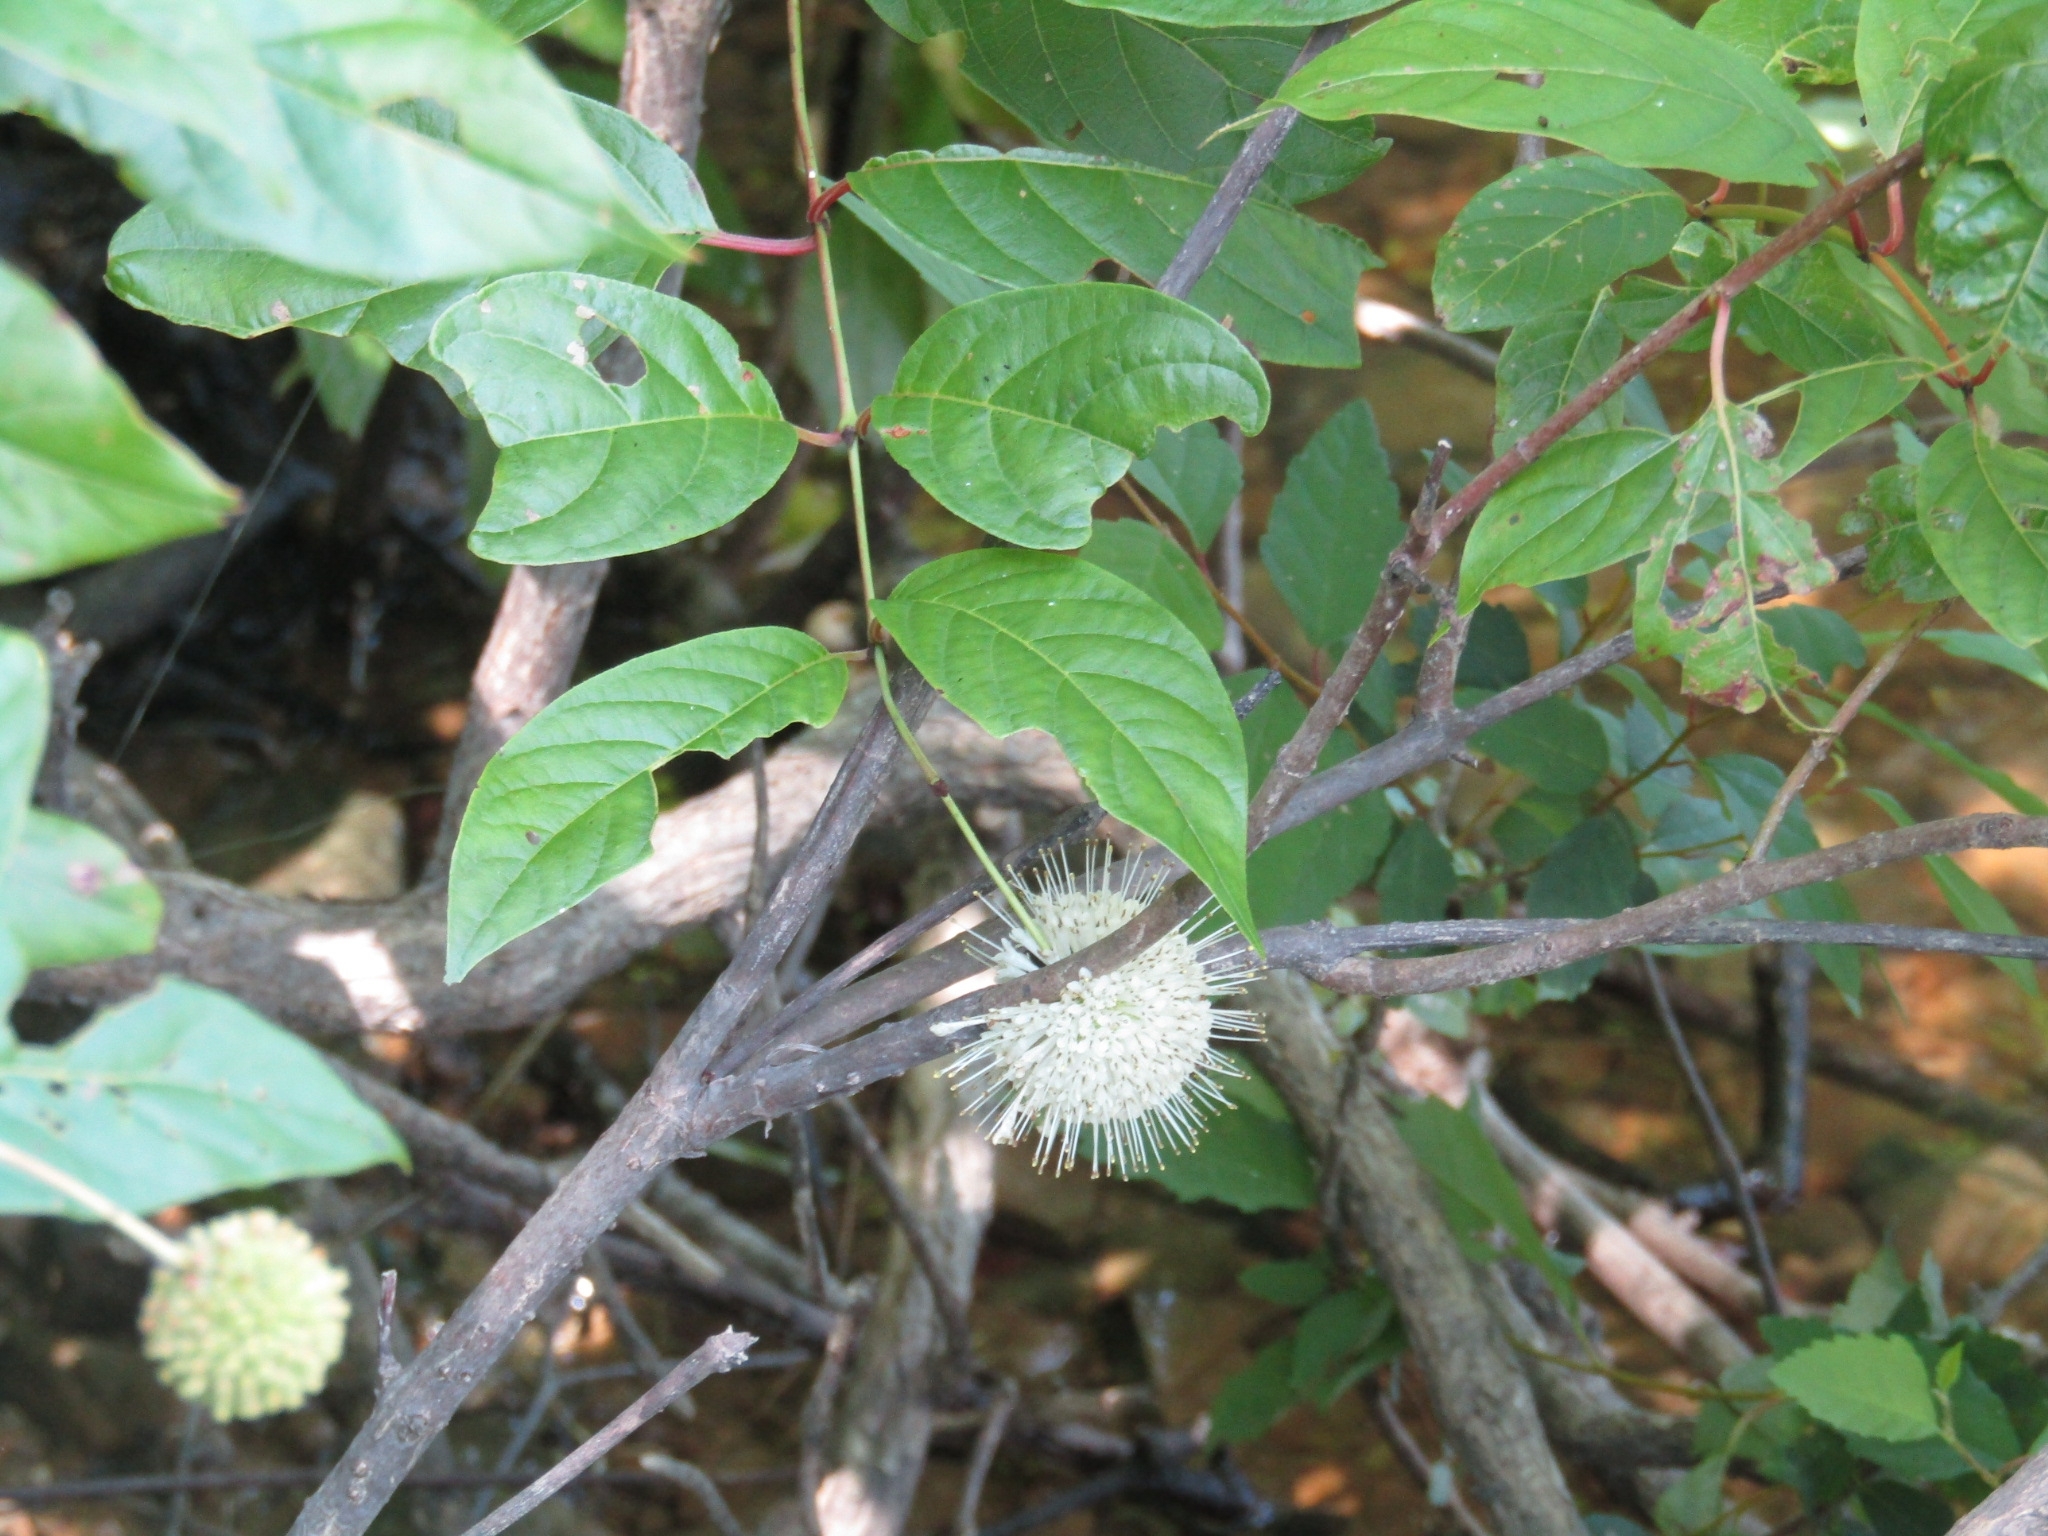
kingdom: Plantae
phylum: Tracheophyta
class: Magnoliopsida
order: Gentianales
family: Rubiaceae
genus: Cephalanthus
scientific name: Cephalanthus occidentalis
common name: Button-willow
